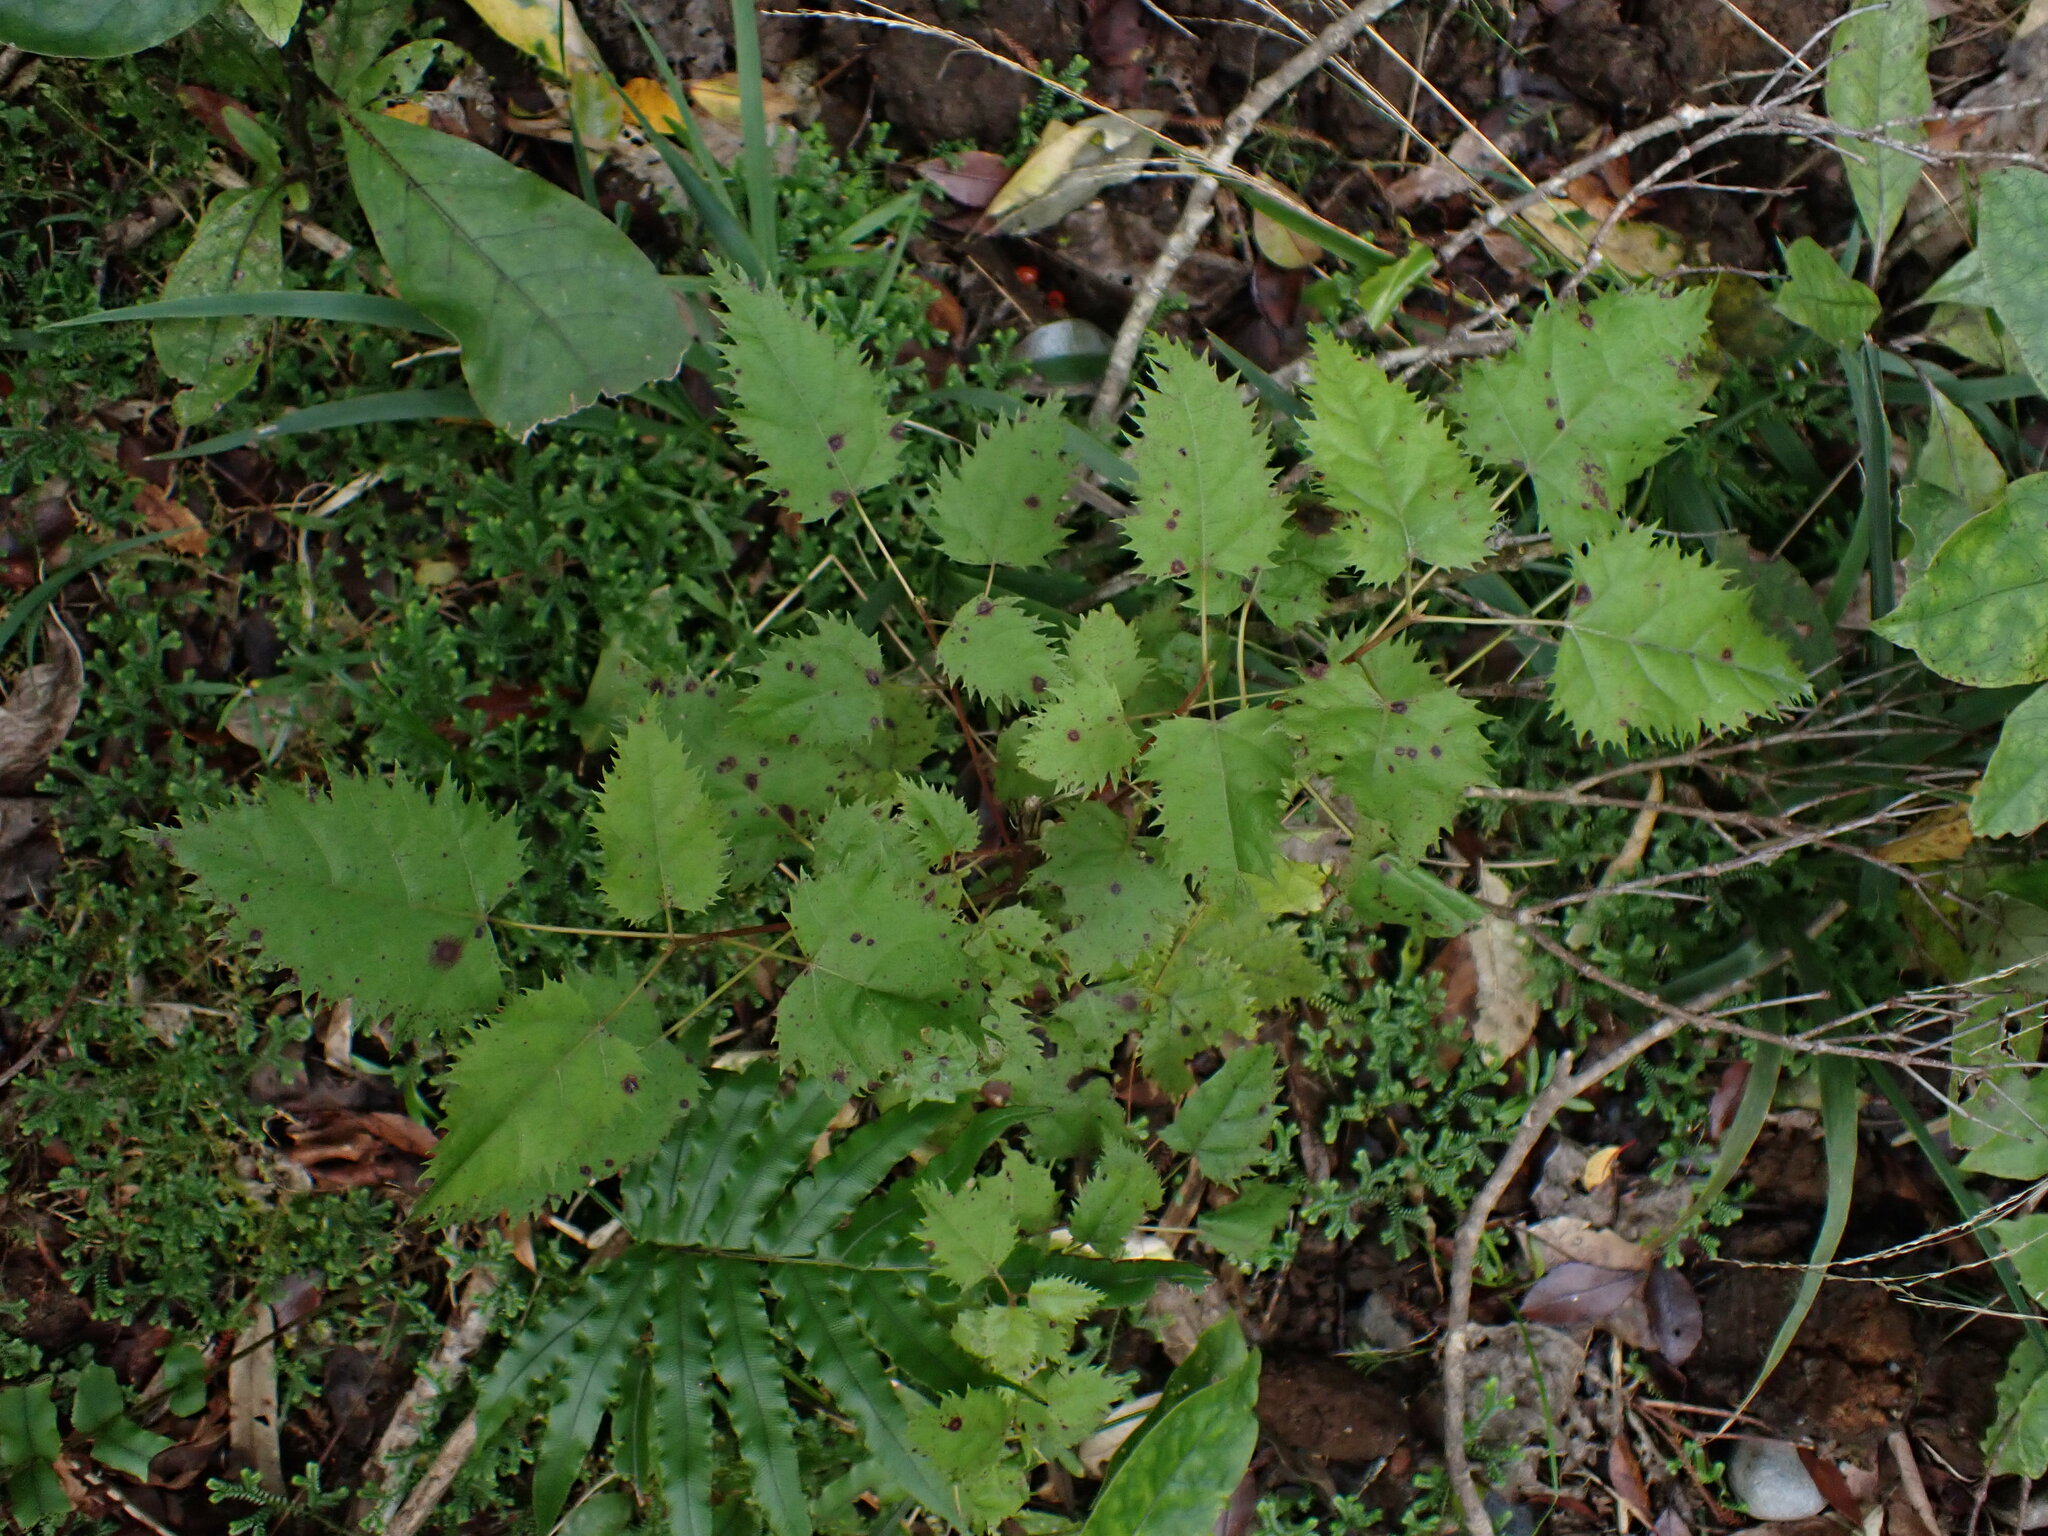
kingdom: Plantae
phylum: Tracheophyta
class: Magnoliopsida
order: Oxalidales
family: Elaeocarpaceae
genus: Aristotelia
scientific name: Aristotelia serrata
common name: New zealand wineberry
